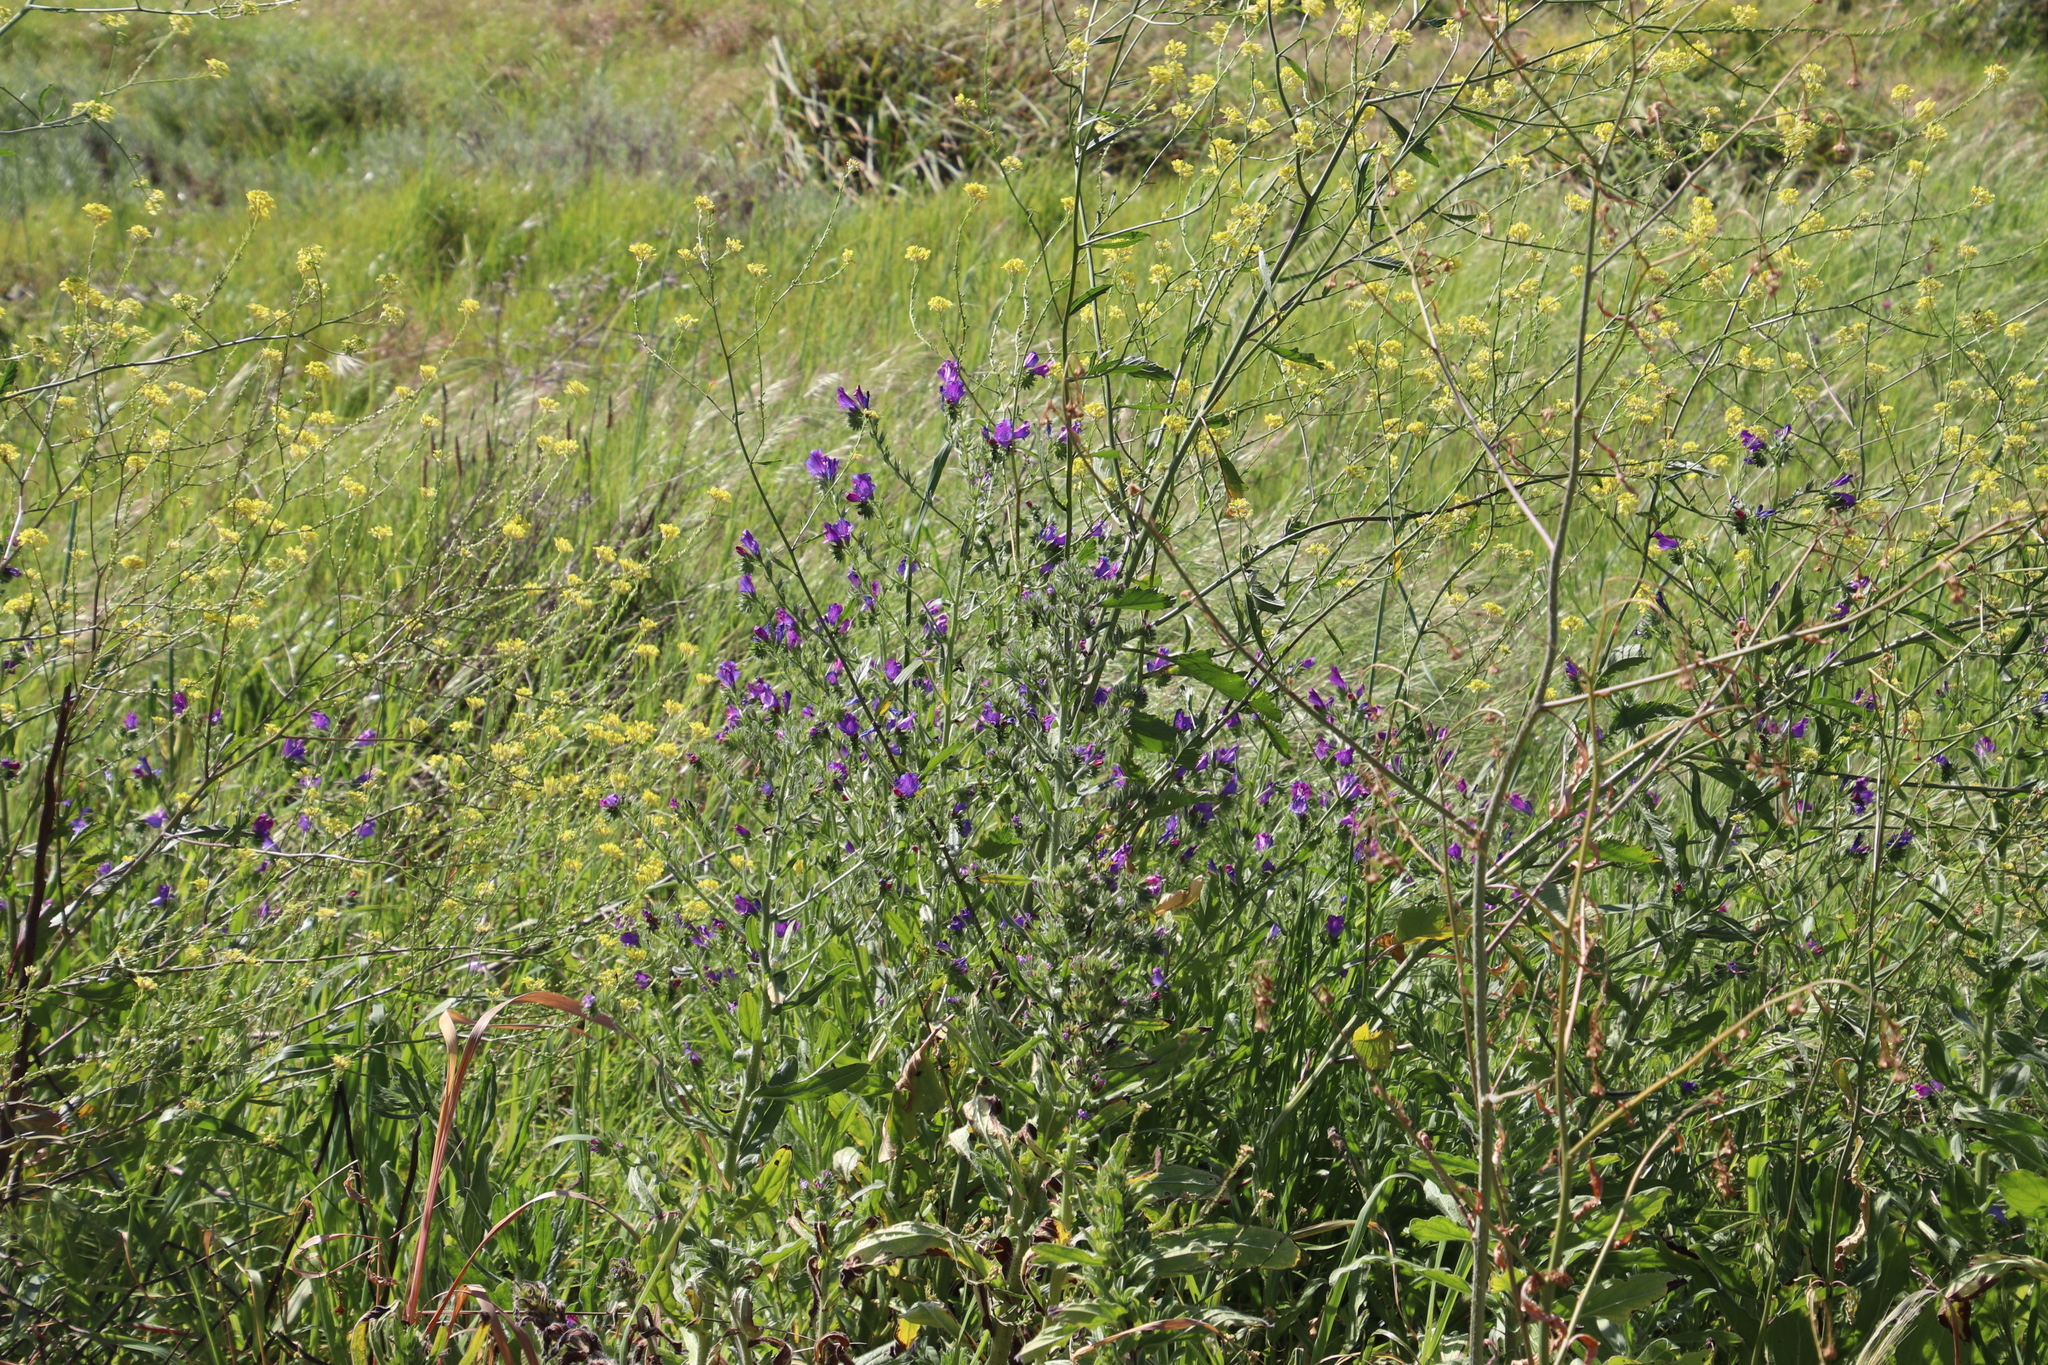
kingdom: Plantae
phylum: Tracheophyta
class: Magnoliopsida
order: Boraginales
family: Boraginaceae
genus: Echium
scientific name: Echium plantagineum
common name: Purple viper's-bugloss
